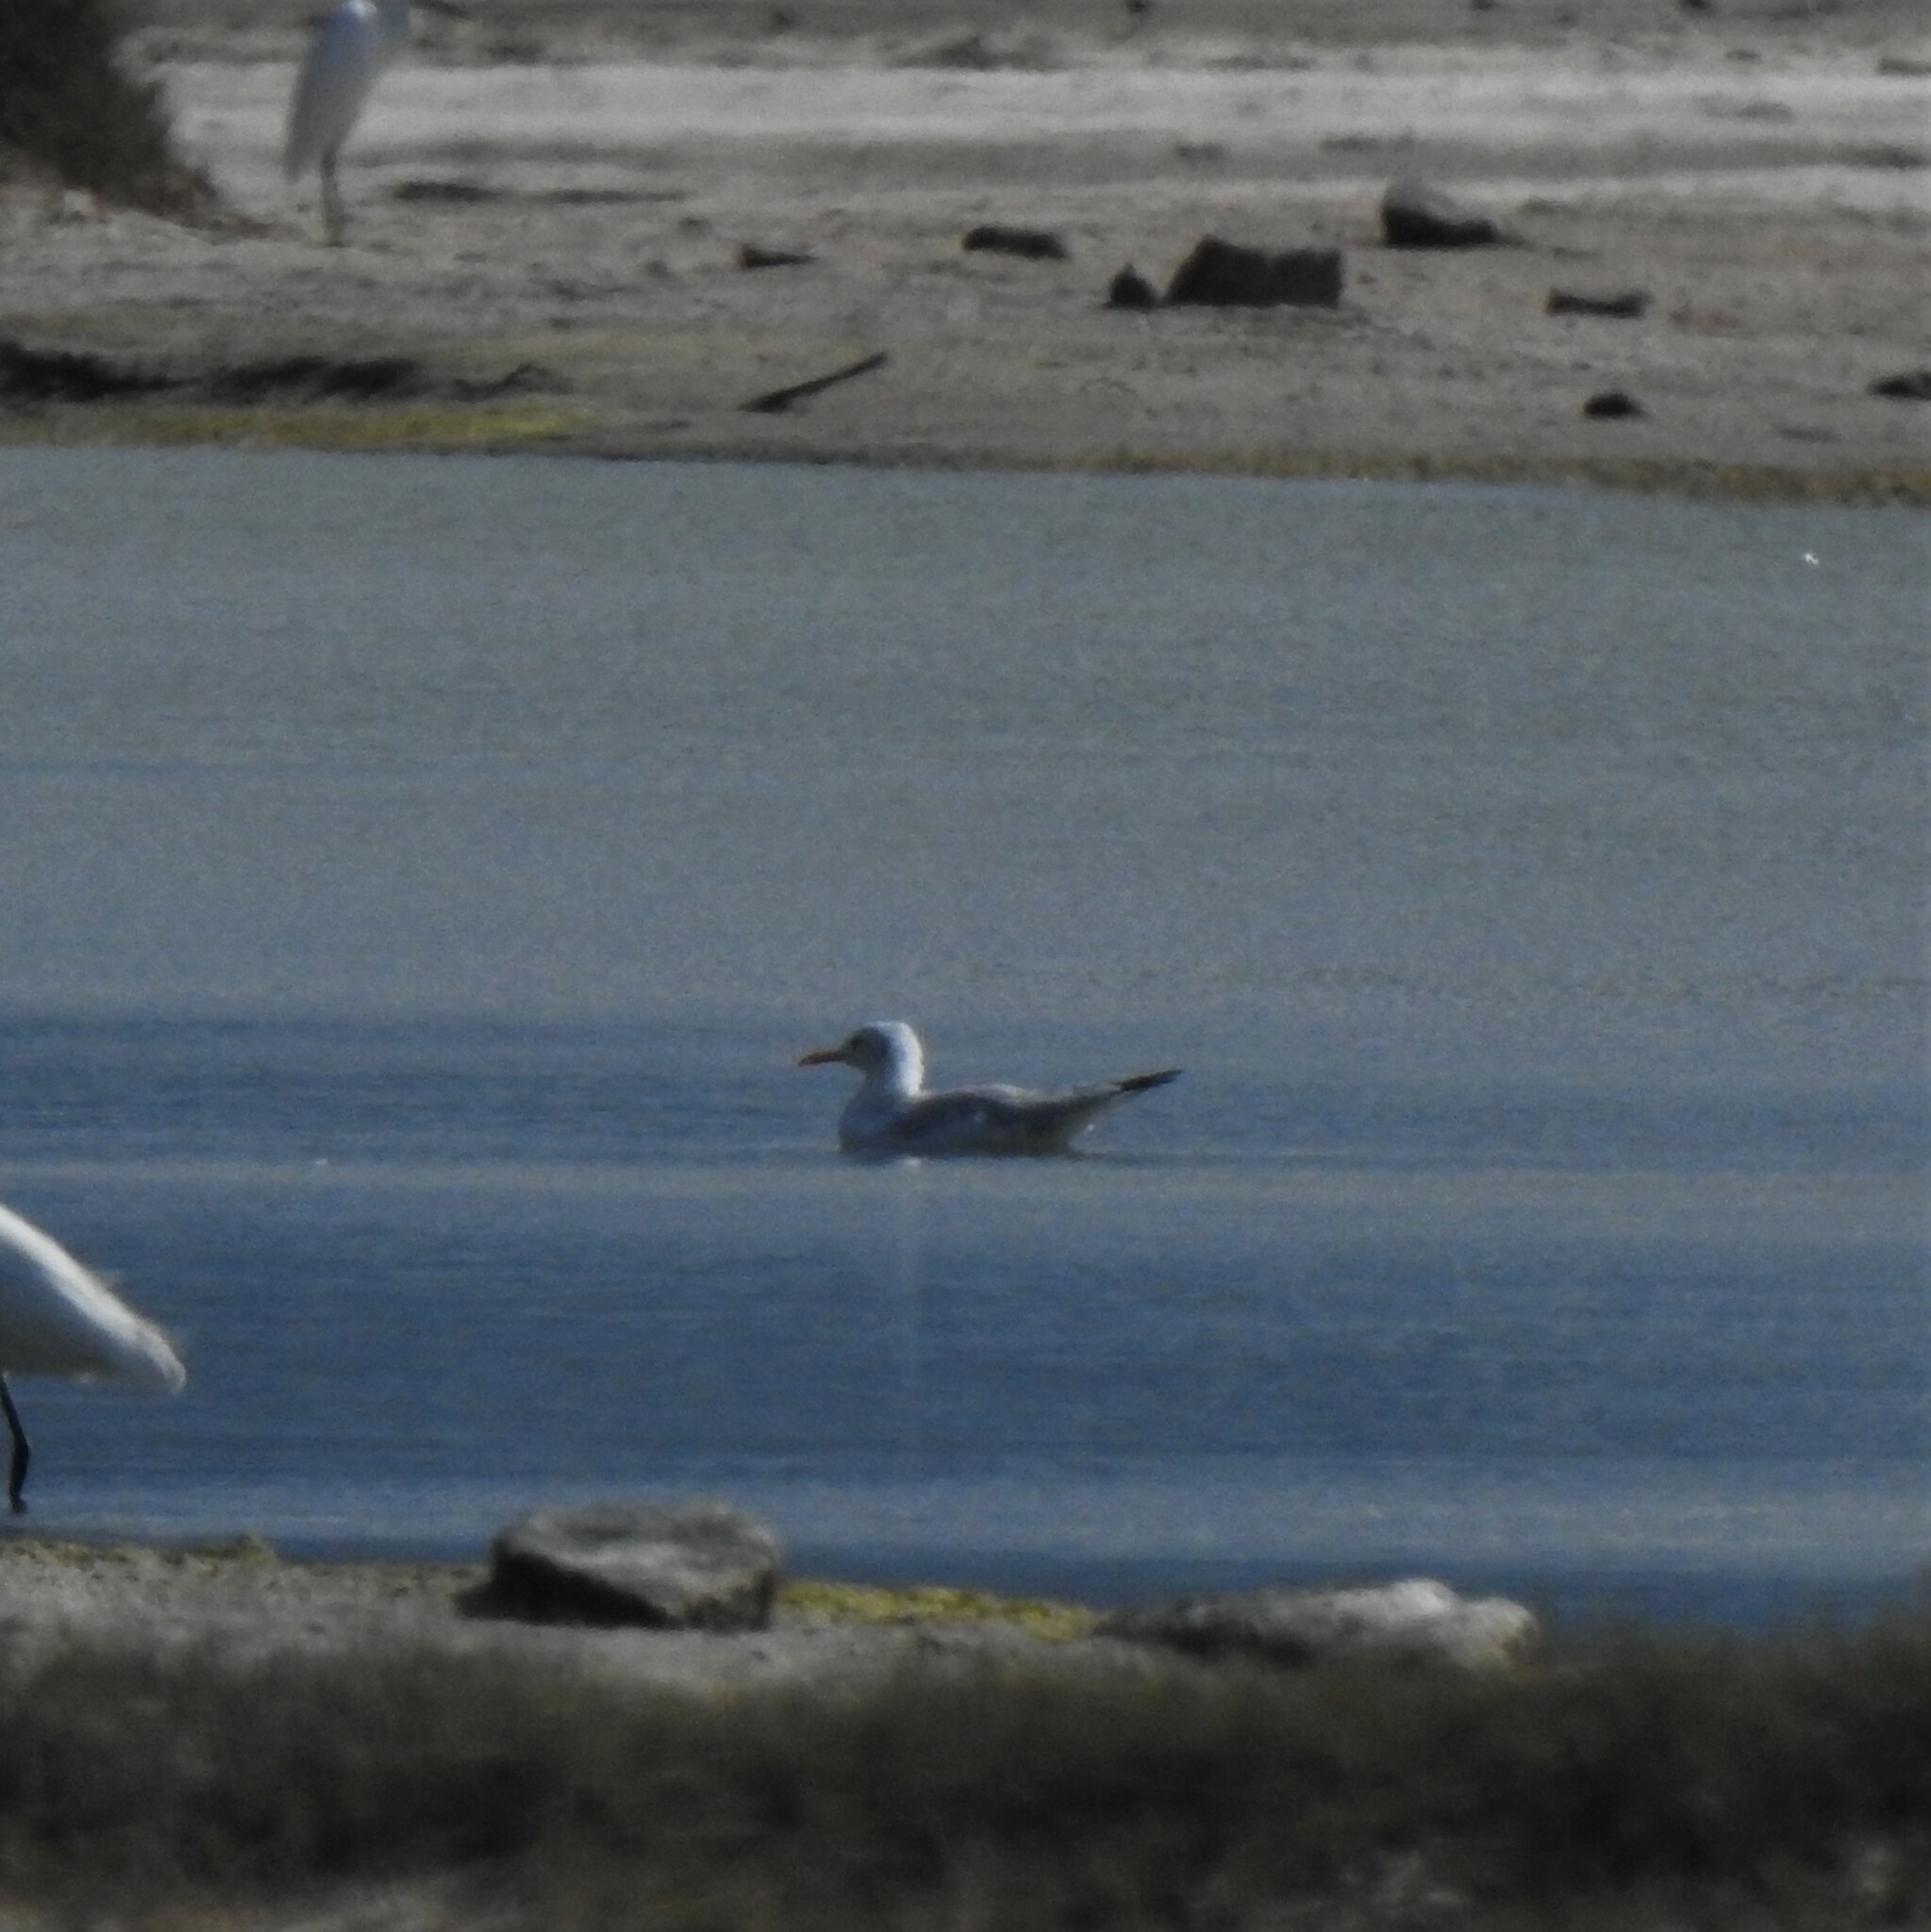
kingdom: Animalia
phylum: Chordata
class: Aves
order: Charadriiformes
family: Laridae
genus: Chroicocephalus
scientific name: Chroicocephalus genei
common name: Slender-billed gull
